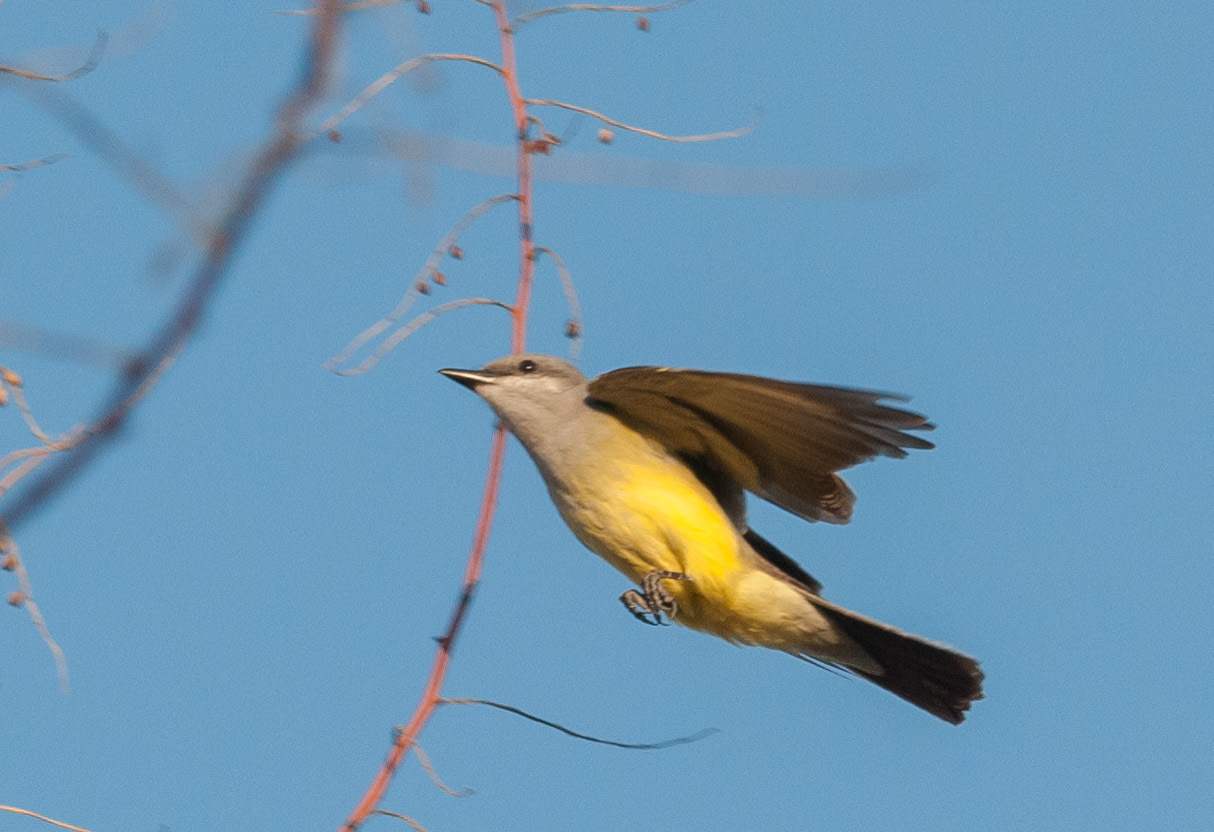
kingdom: Animalia
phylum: Chordata
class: Aves
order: Passeriformes
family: Tyrannidae
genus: Tyrannus
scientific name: Tyrannus verticalis
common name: Western kingbird
